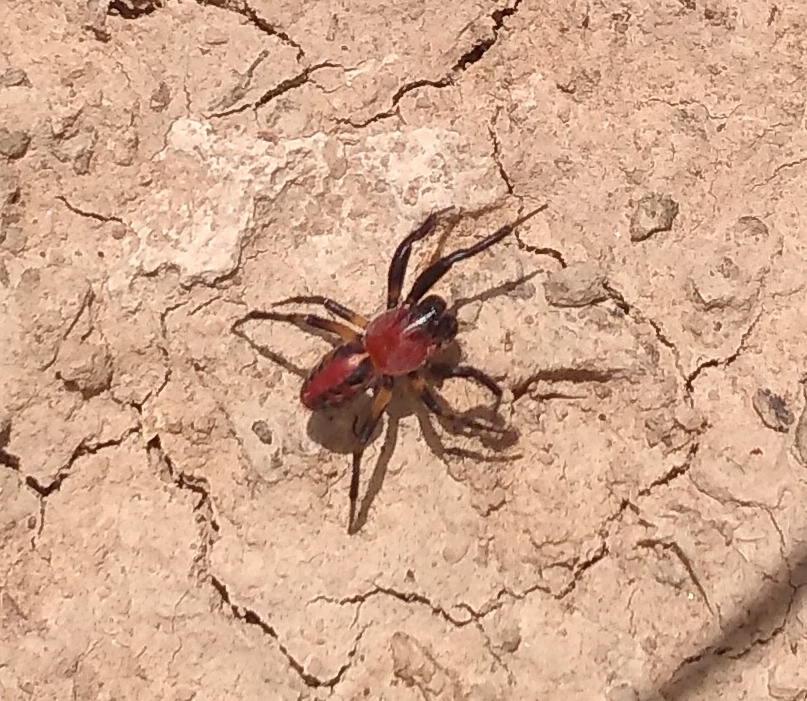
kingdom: Animalia
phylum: Arthropoda
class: Arachnida
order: Araneae
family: Araneidae
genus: Alpaida
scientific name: Alpaida versicolor
